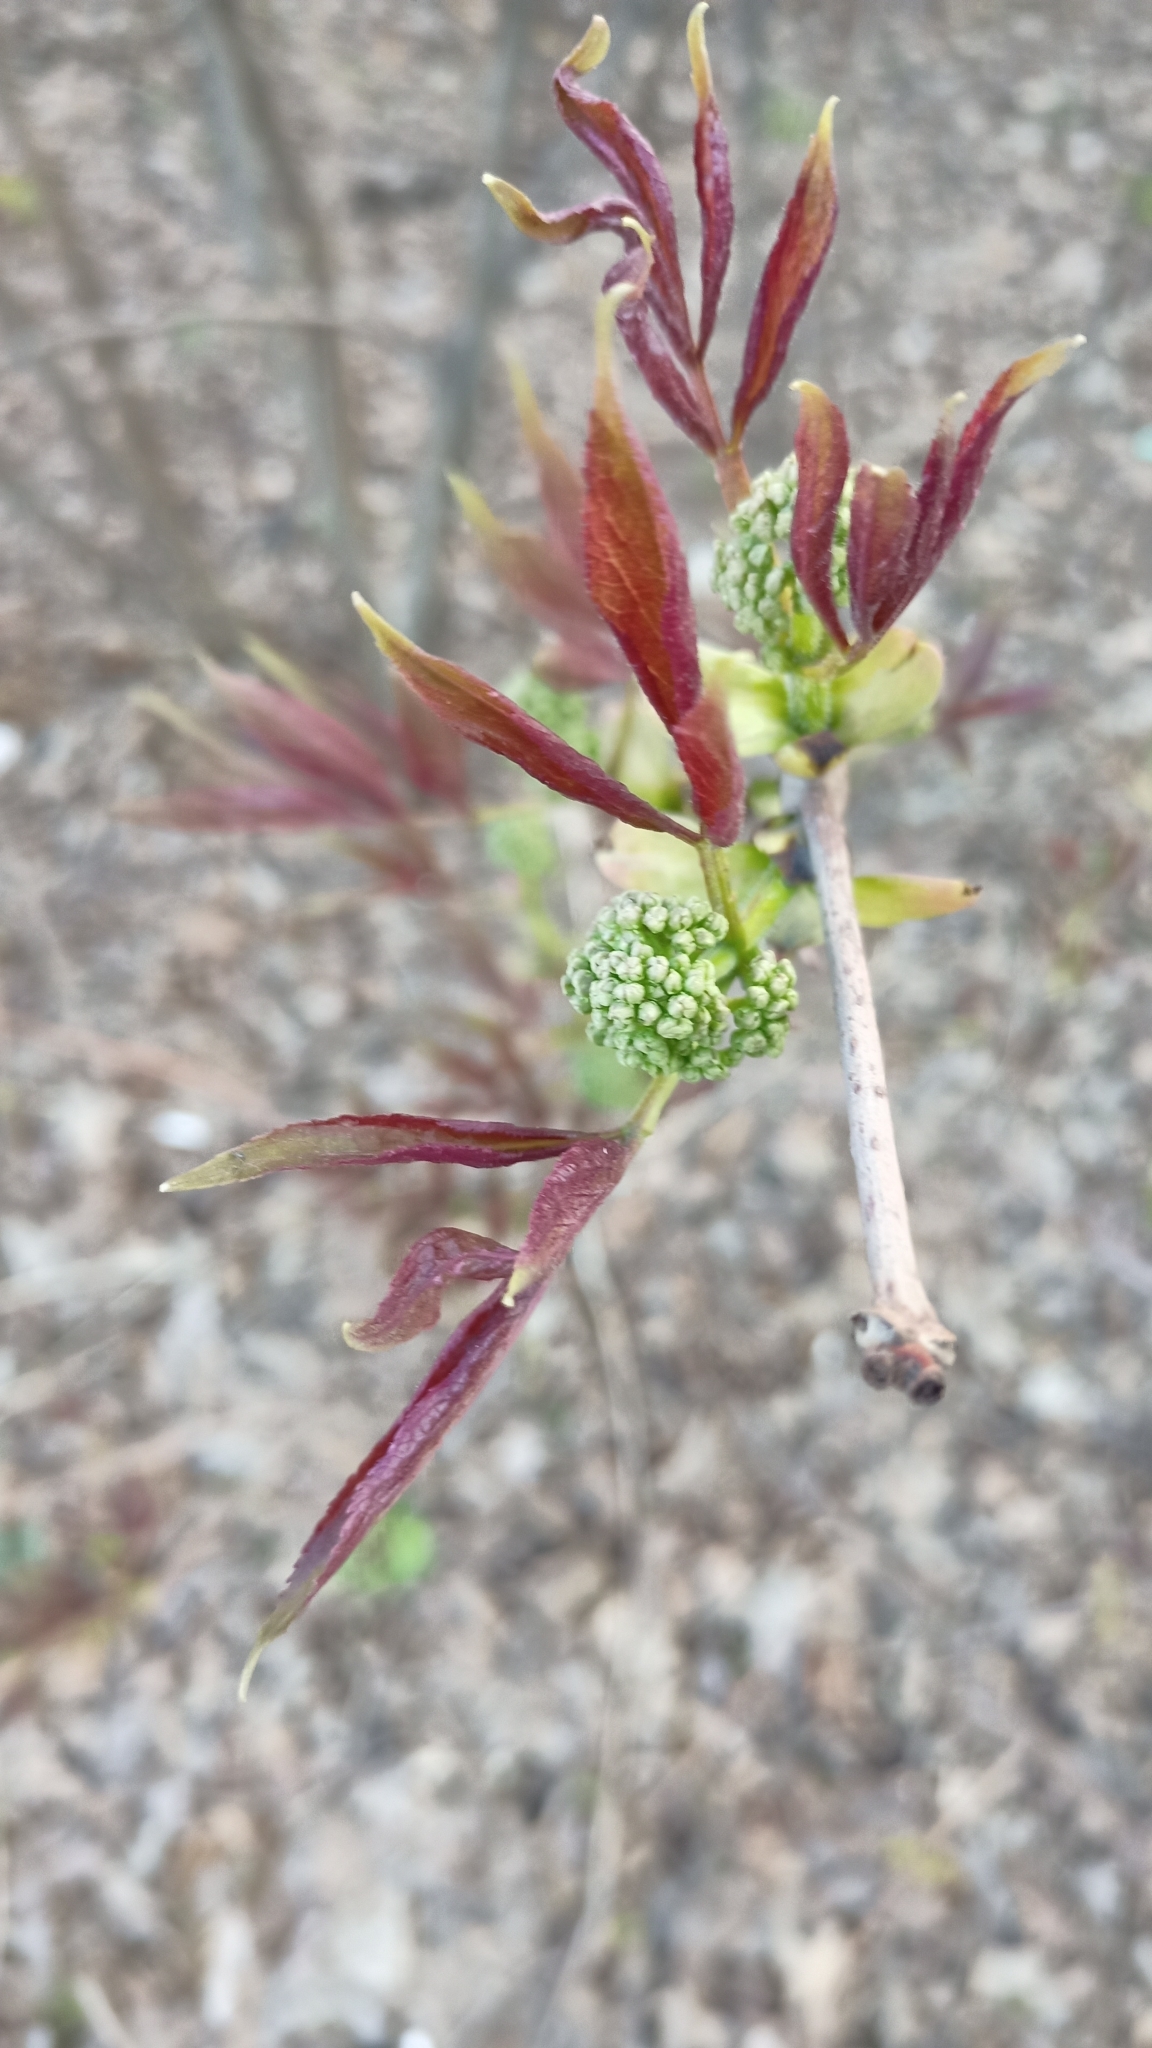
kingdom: Plantae
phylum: Tracheophyta
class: Magnoliopsida
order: Dipsacales
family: Viburnaceae
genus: Sambucus
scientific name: Sambucus racemosa
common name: Red-berried elder
